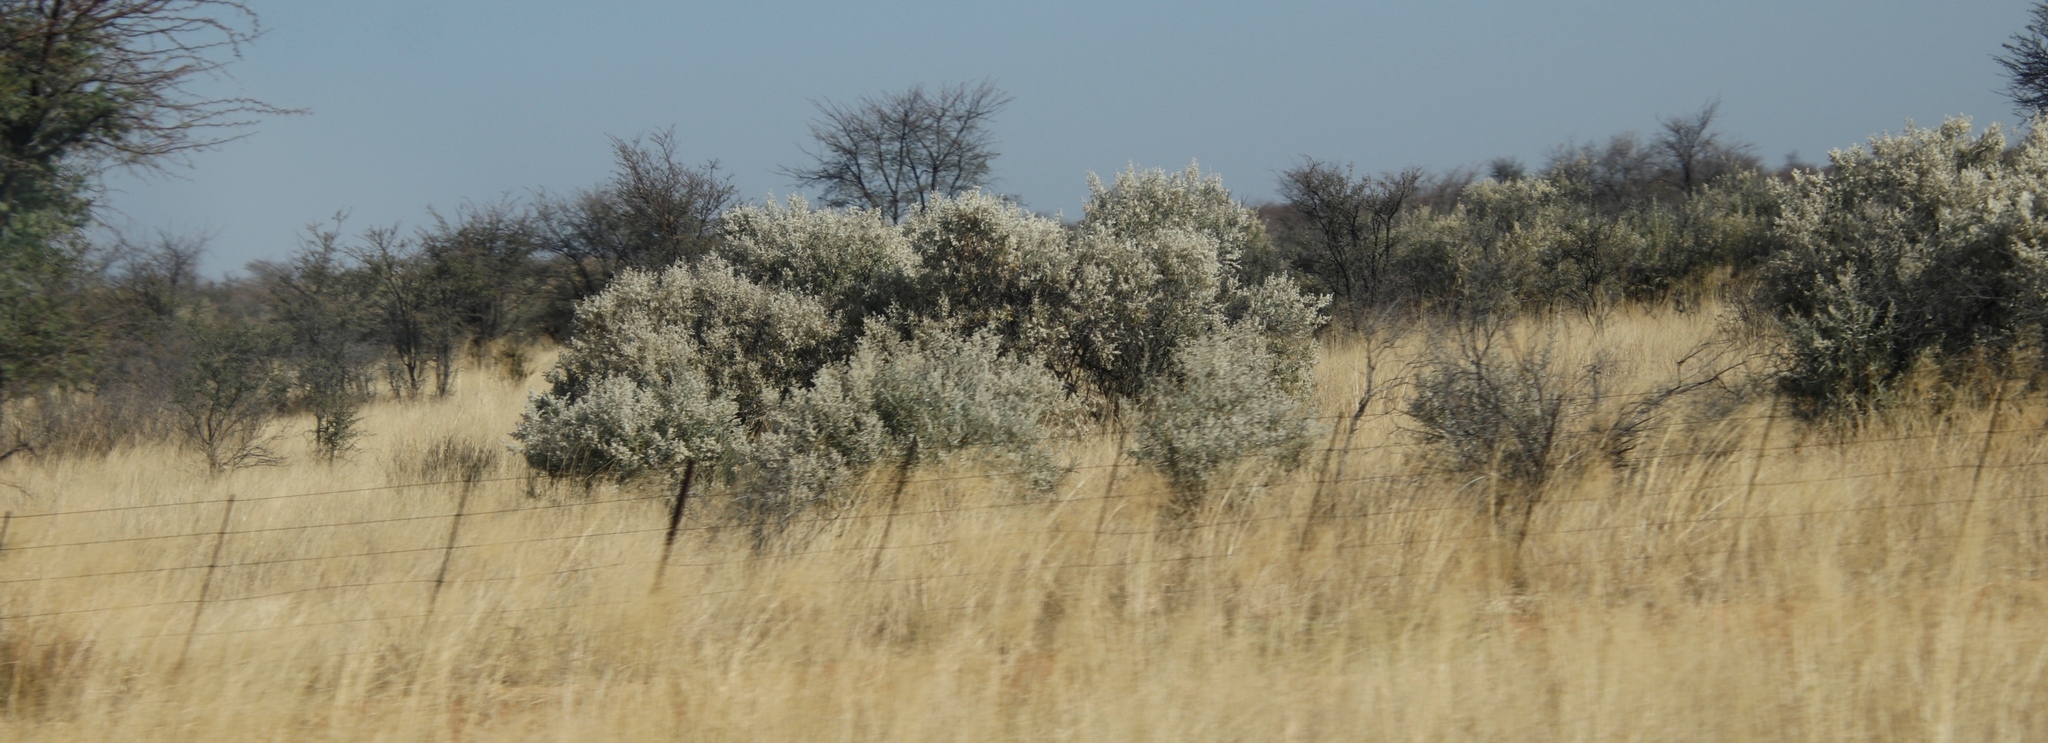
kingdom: Plantae
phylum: Tracheophyta
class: Magnoliopsida
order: Asterales
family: Asteraceae
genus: Tarchonanthus
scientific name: Tarchonanthus camphoratus
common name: Camphorwood
